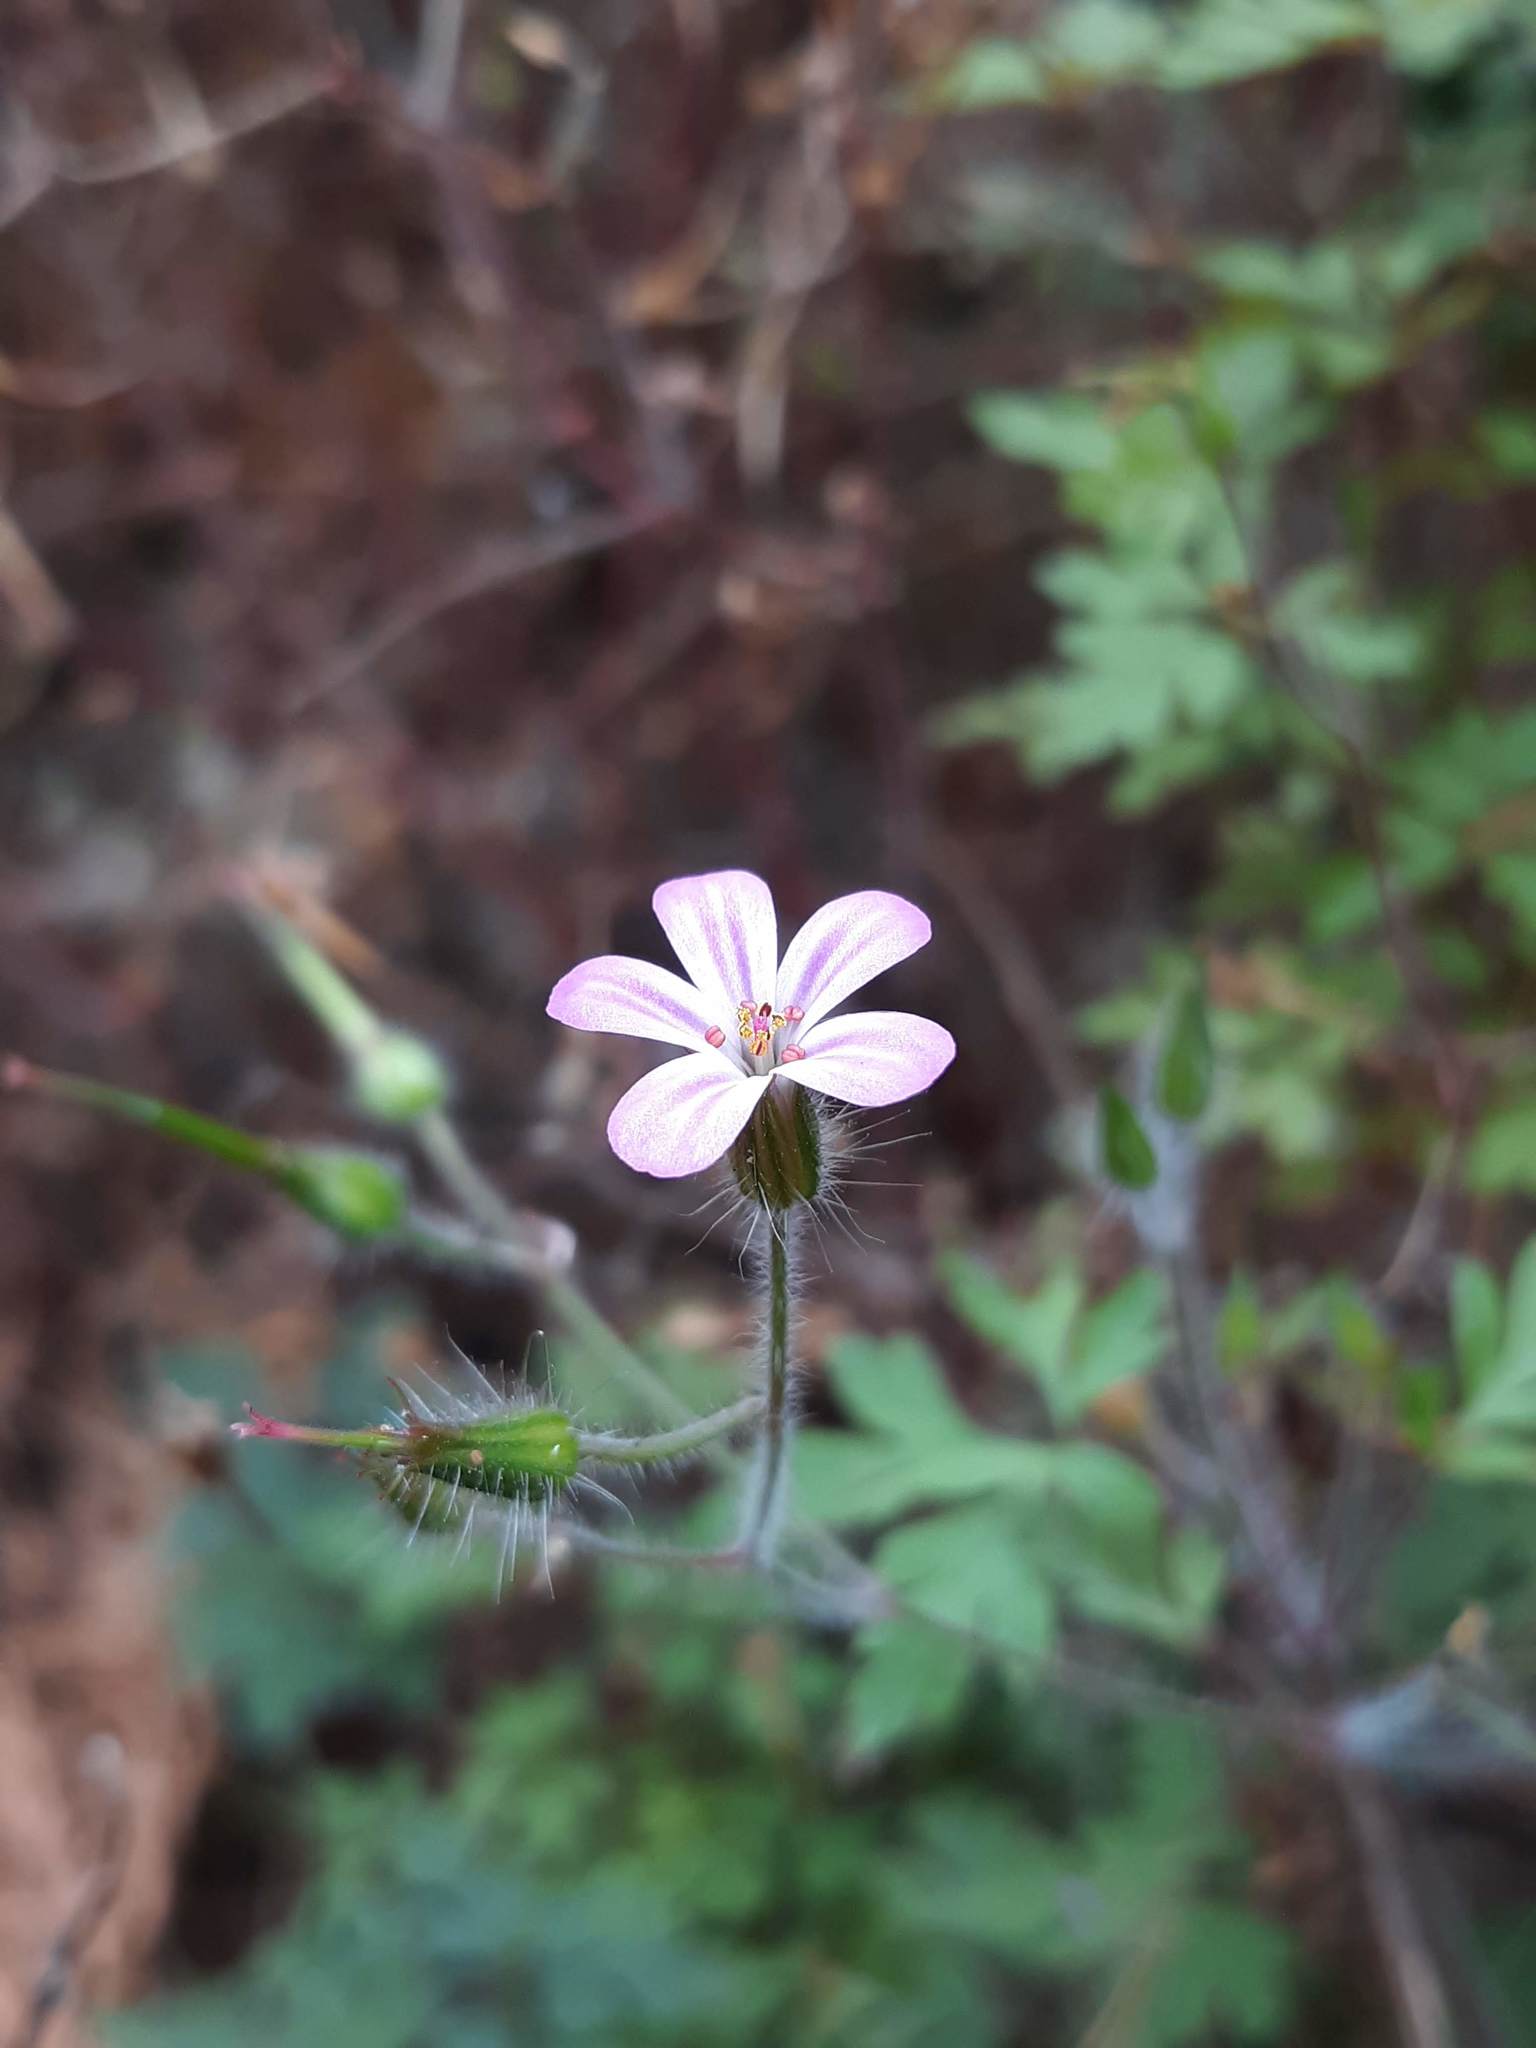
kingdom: Plantae
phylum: Tracheophyta
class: Magnoliopsida
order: Geraniales
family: Geraniaceae
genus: Geranium
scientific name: Geranium robertianum
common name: Herb-robert
